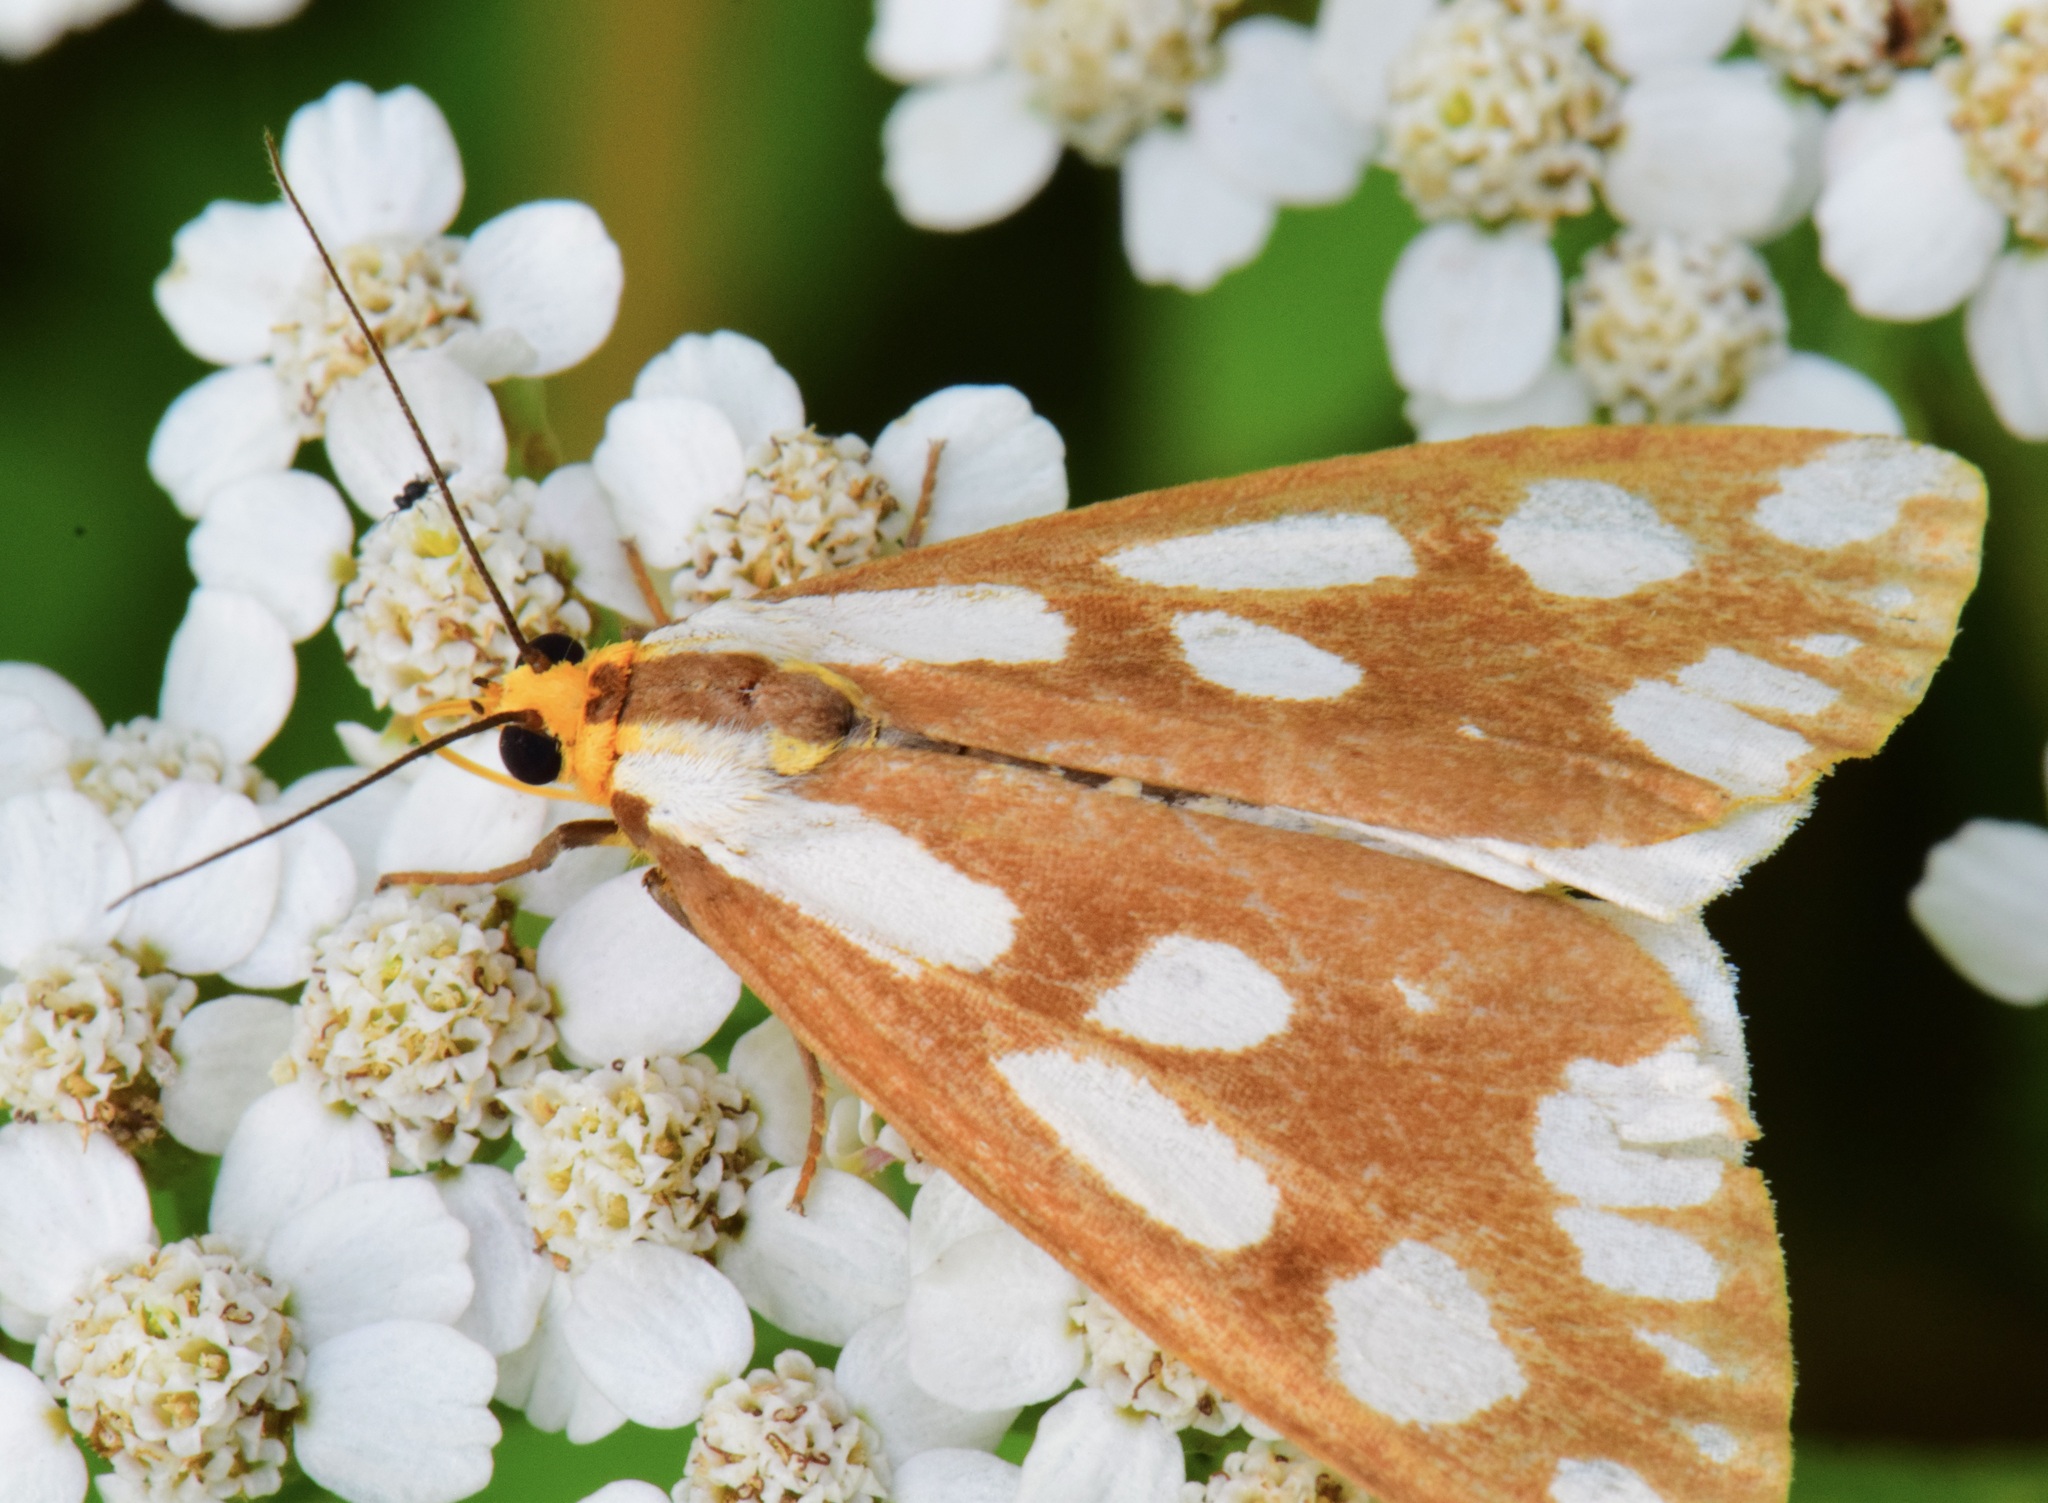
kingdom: Animalia
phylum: Arthropoda
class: Insecta
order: Lepidoptera
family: Erebidae
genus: Haploa
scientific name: Haploa confusa
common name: Confused haploa moth
